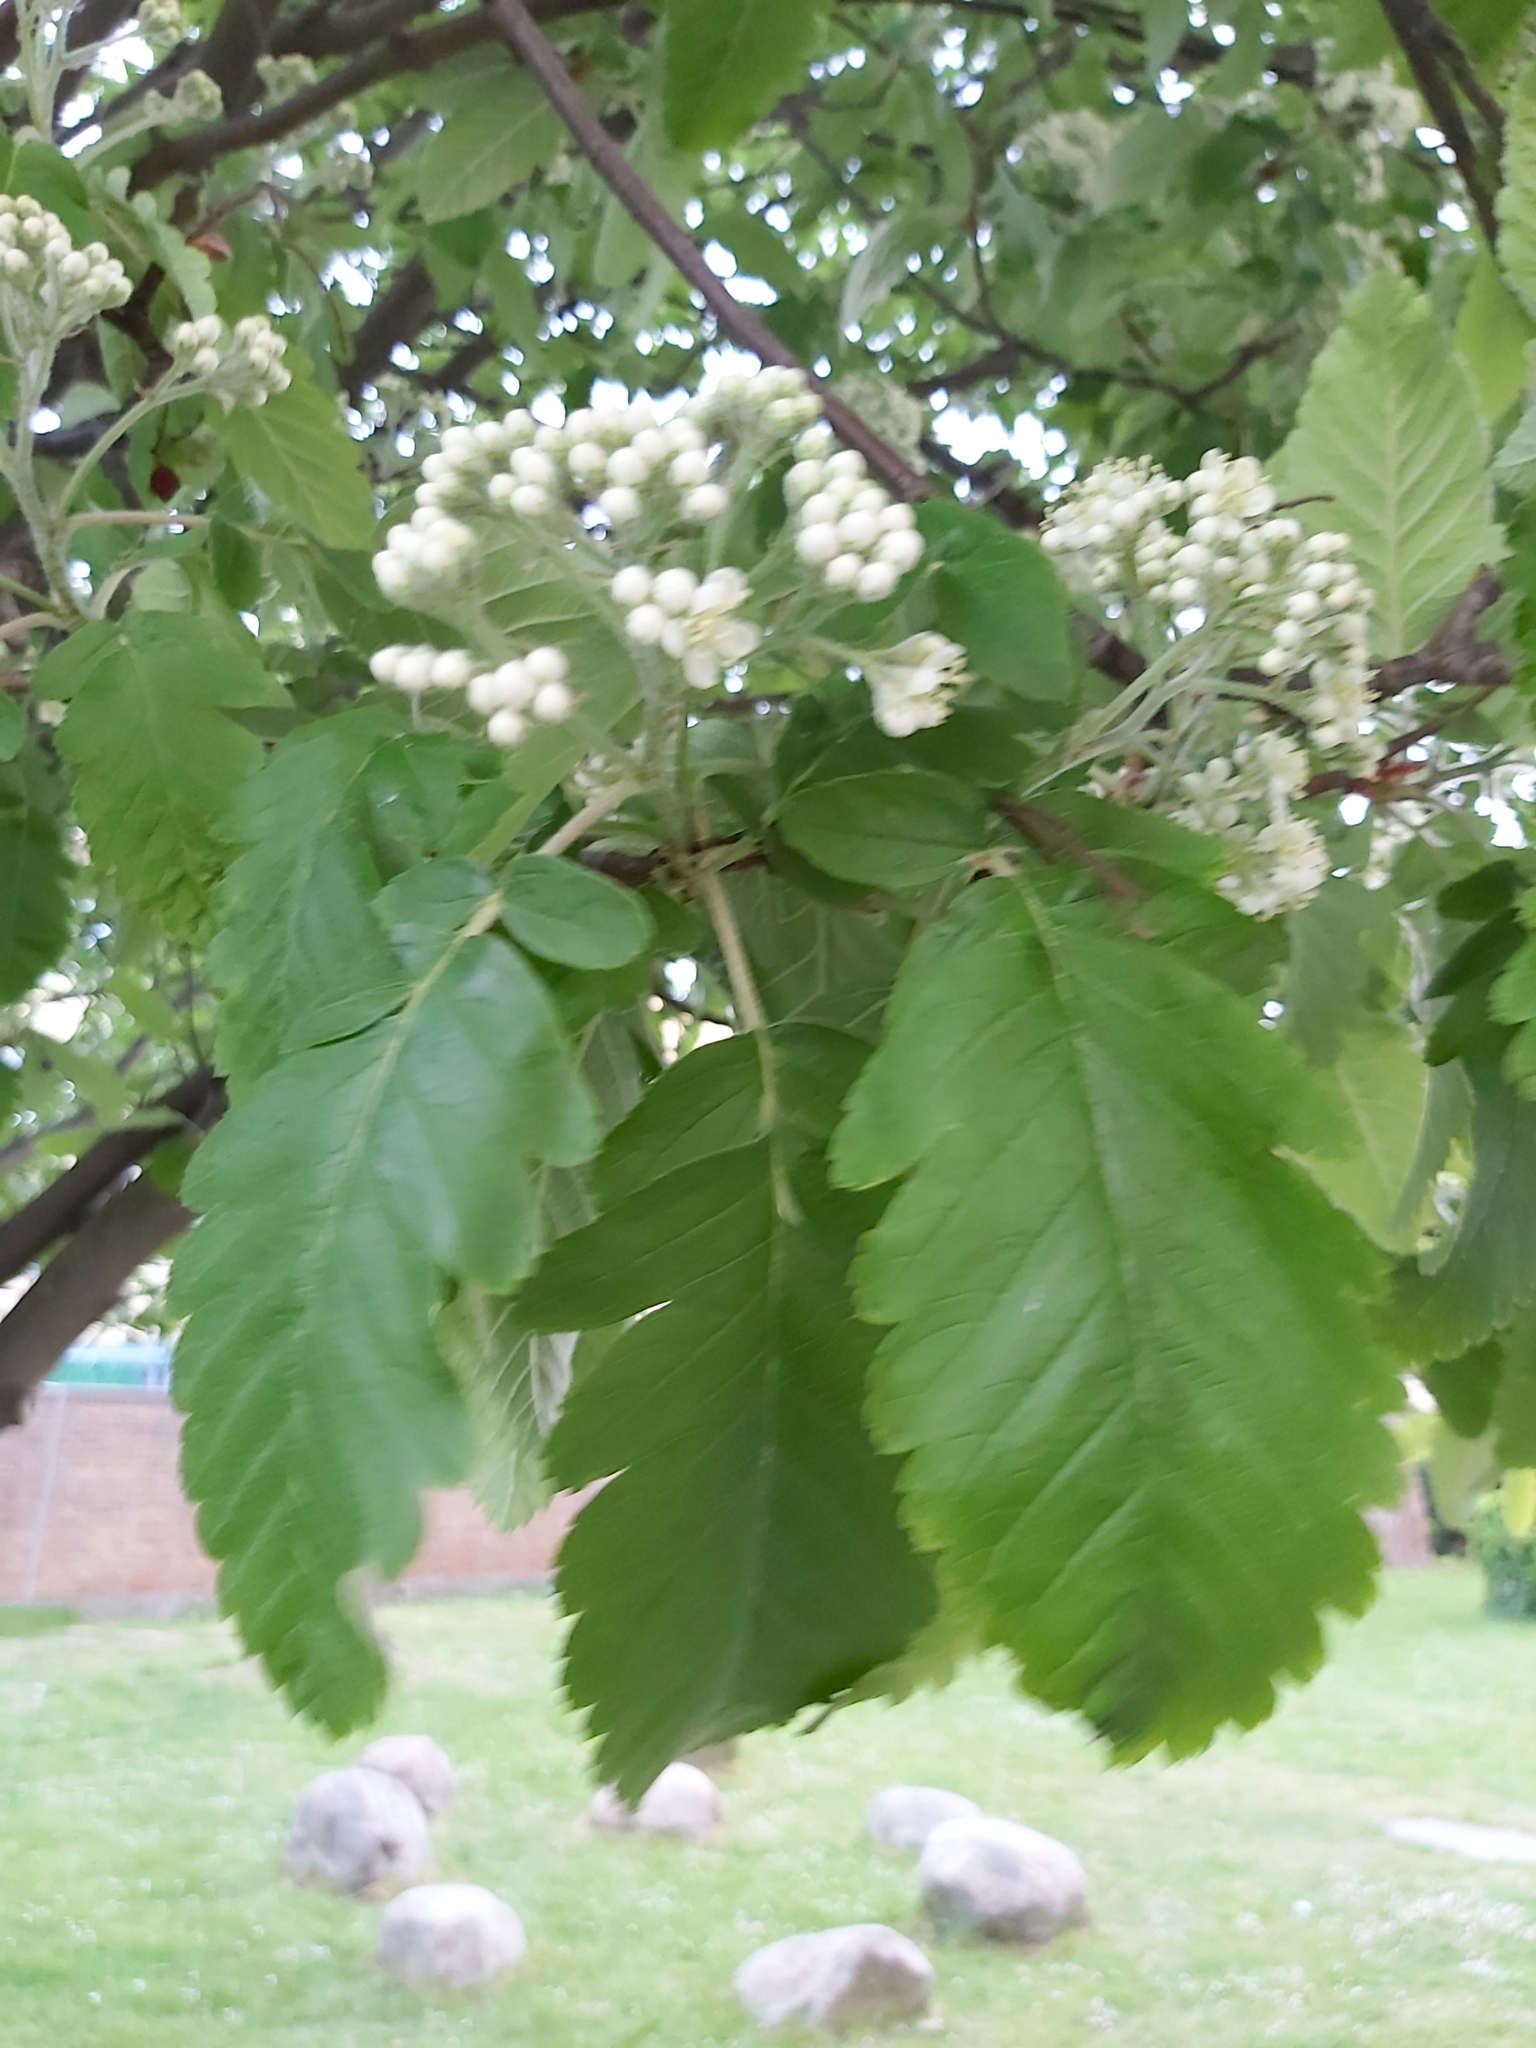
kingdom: Plantae
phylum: Tracheophyta
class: Magnoliopsida
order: Rosales
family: Rosaceae
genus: Scandosorbus
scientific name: Scandosorbus intermedia
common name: Swedish whitebeam
